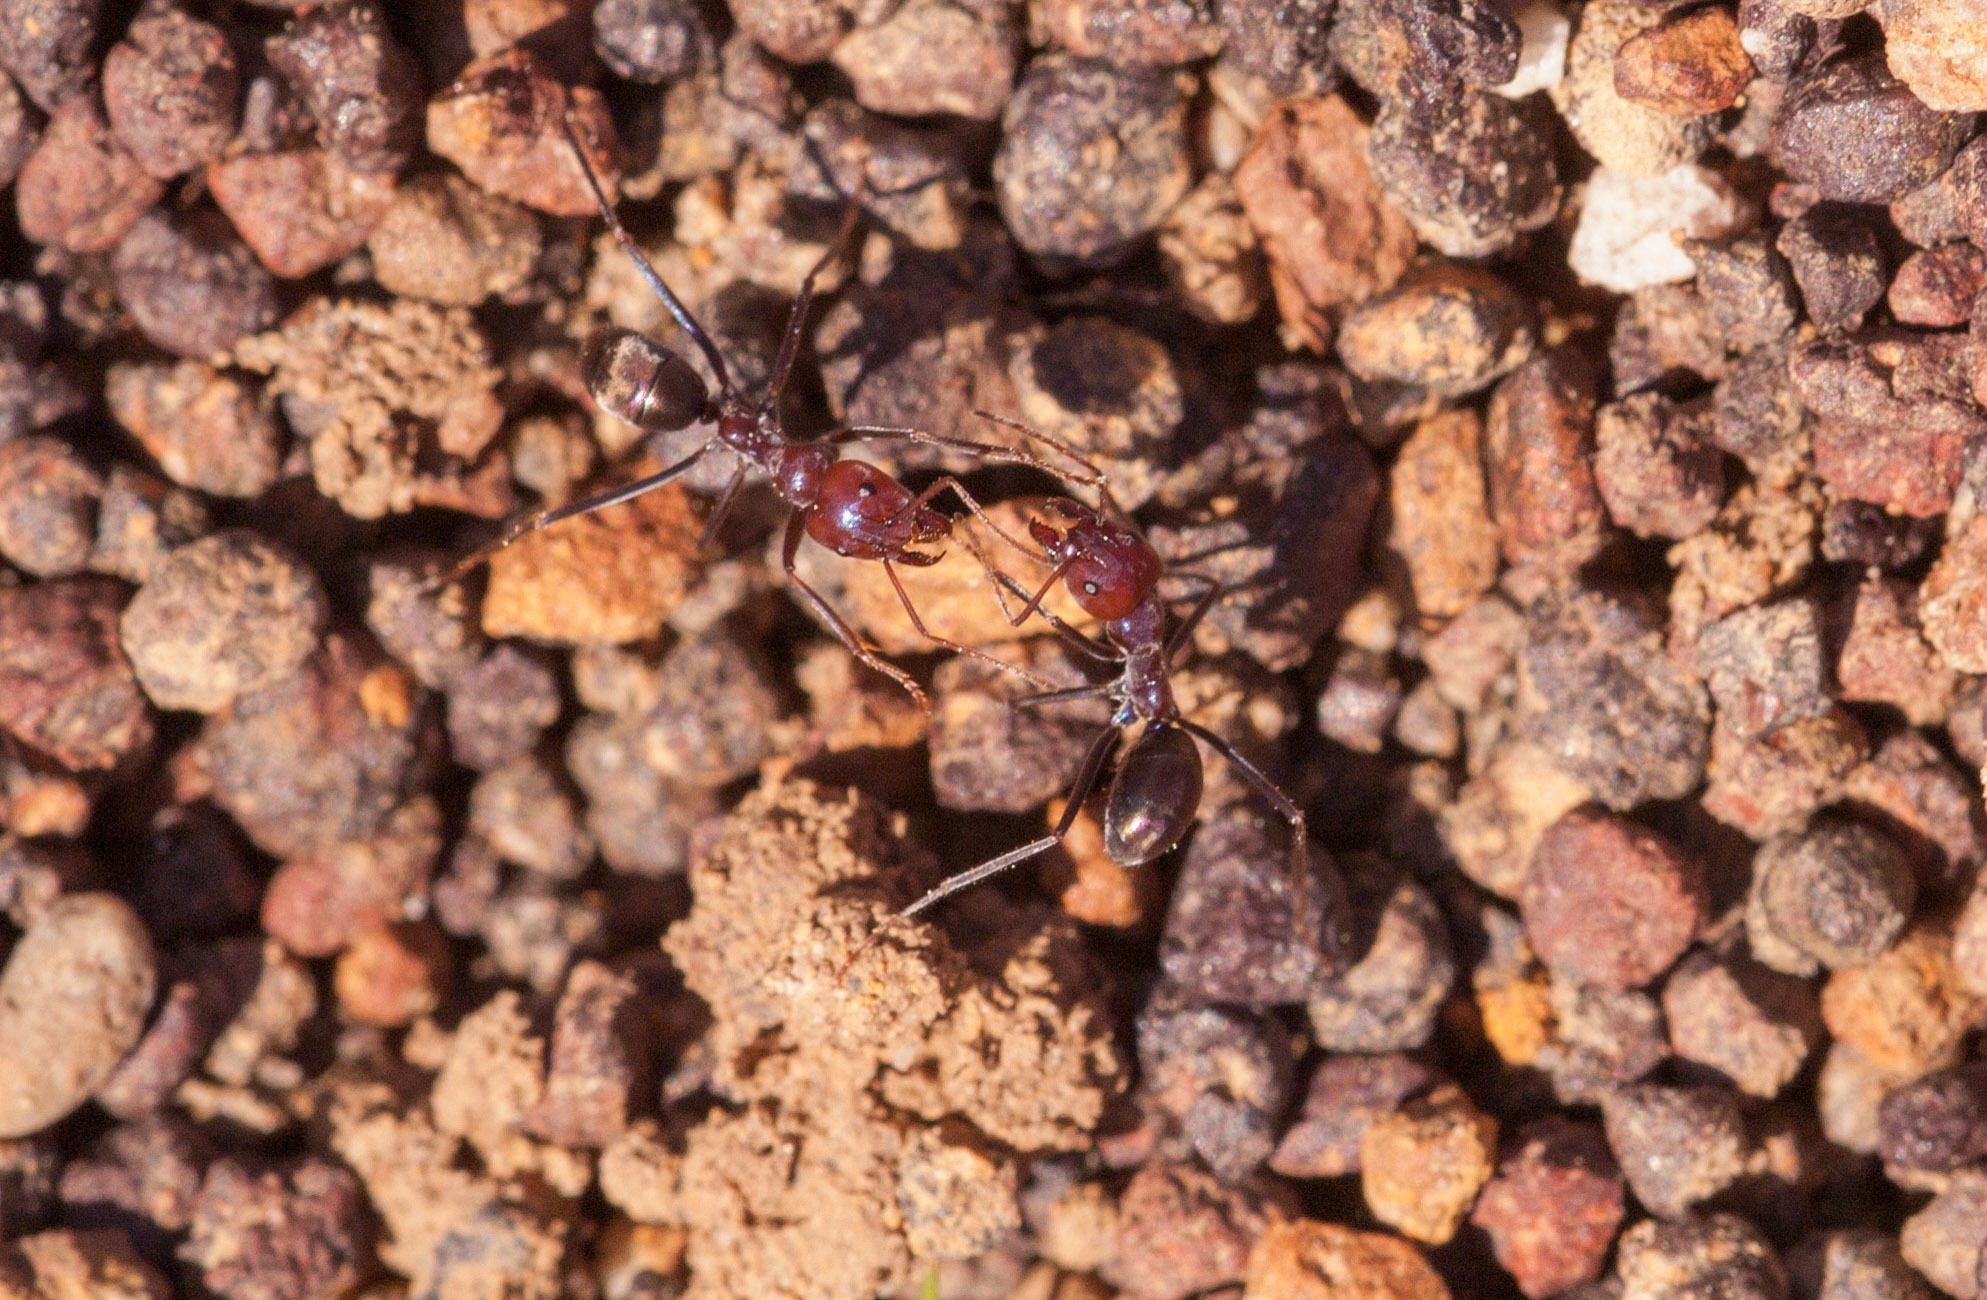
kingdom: Animalia
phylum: Arthropoda
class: Insecta
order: Hymenoptera
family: Formicidae
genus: Iridomyrmex
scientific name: Iridomyrmex purpureus
